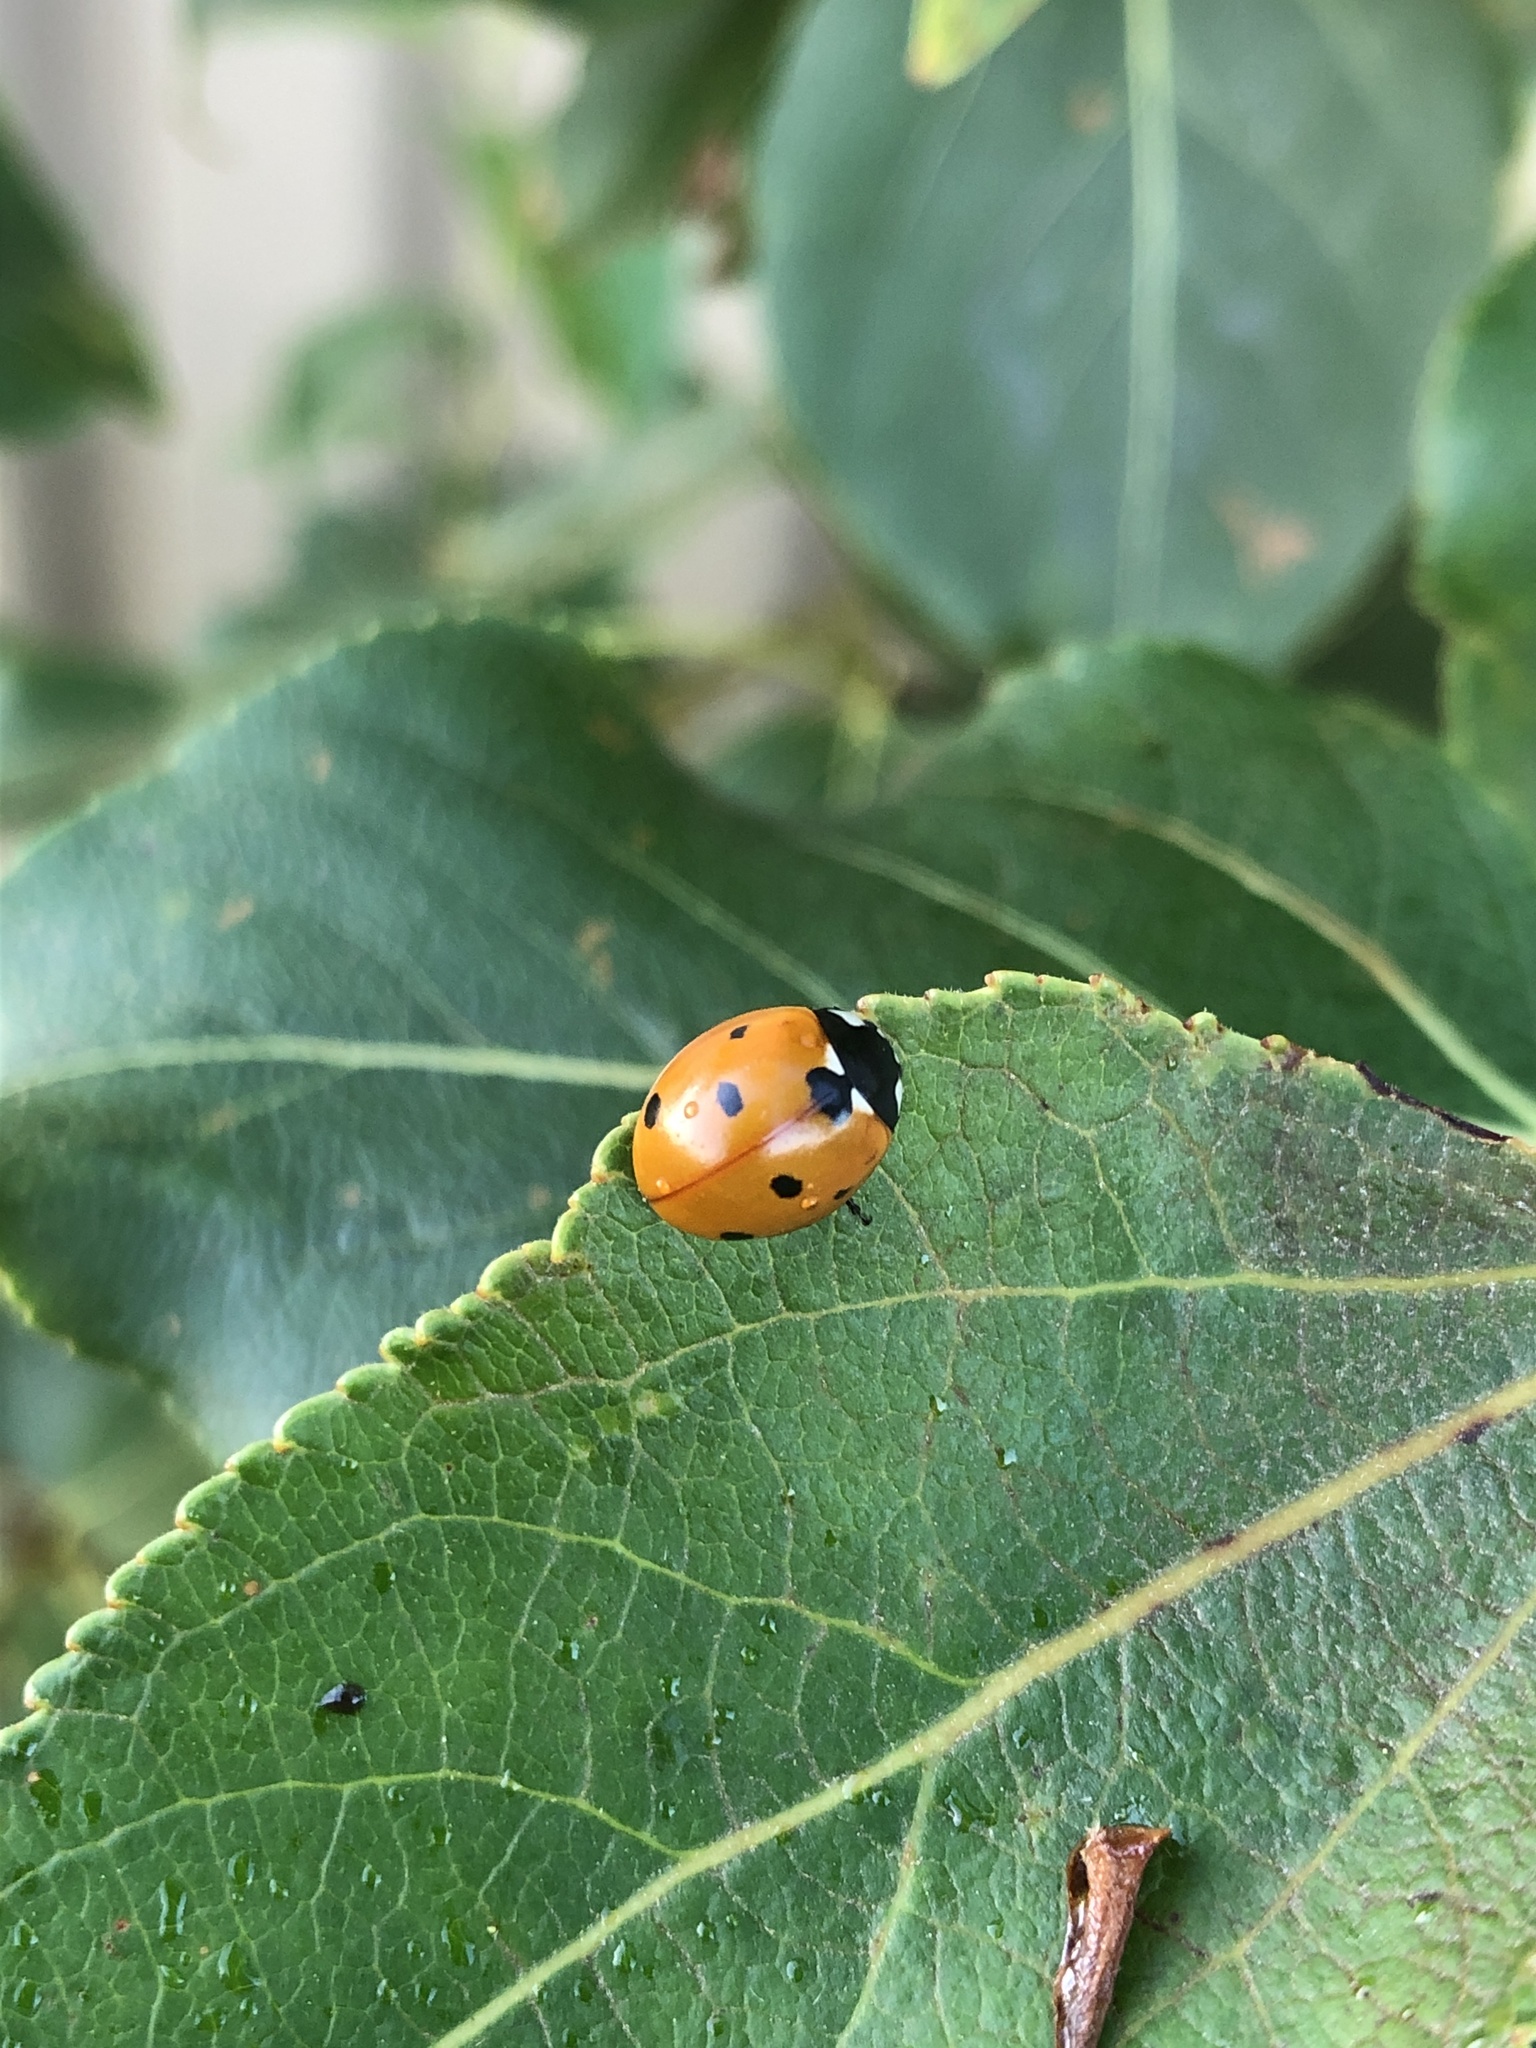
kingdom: Animalia
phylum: Arthropoda
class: Insecta
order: Coleoptera
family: Coccinellidae
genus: Coccinella
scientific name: Coccinella septempunctata
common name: Sevenspotted lady beetle
